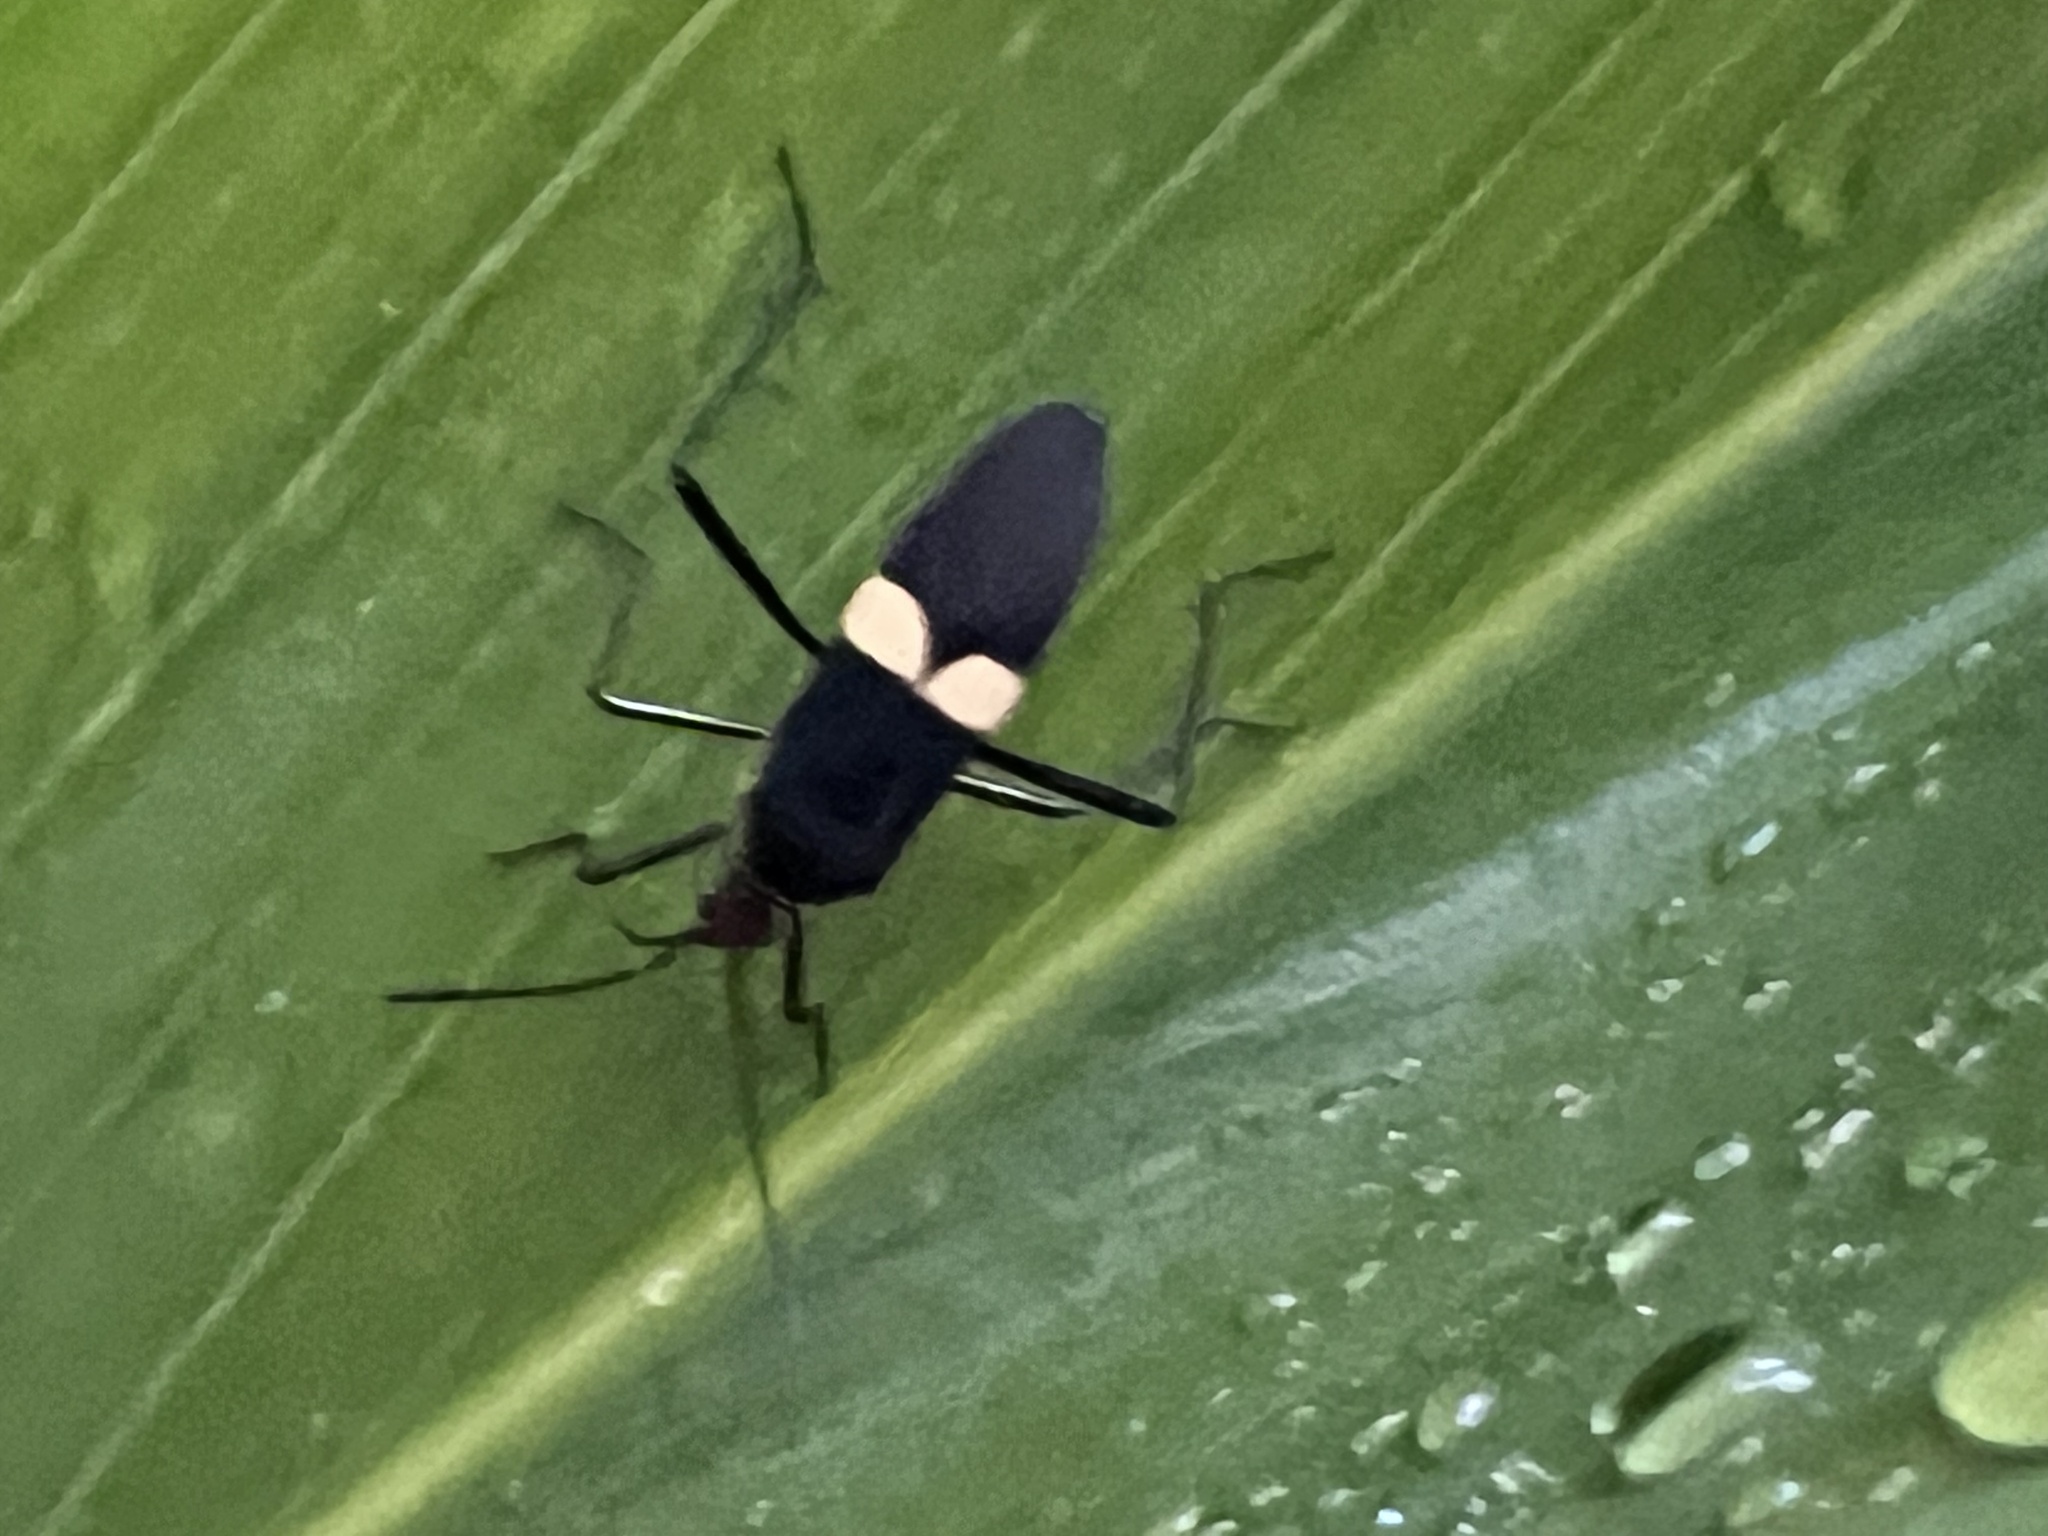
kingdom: Animalia
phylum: Arthropoda
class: Insecta
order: Hemiptera
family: Coreidae
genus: Hypselonotus
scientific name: Hypselonotus interruptus
